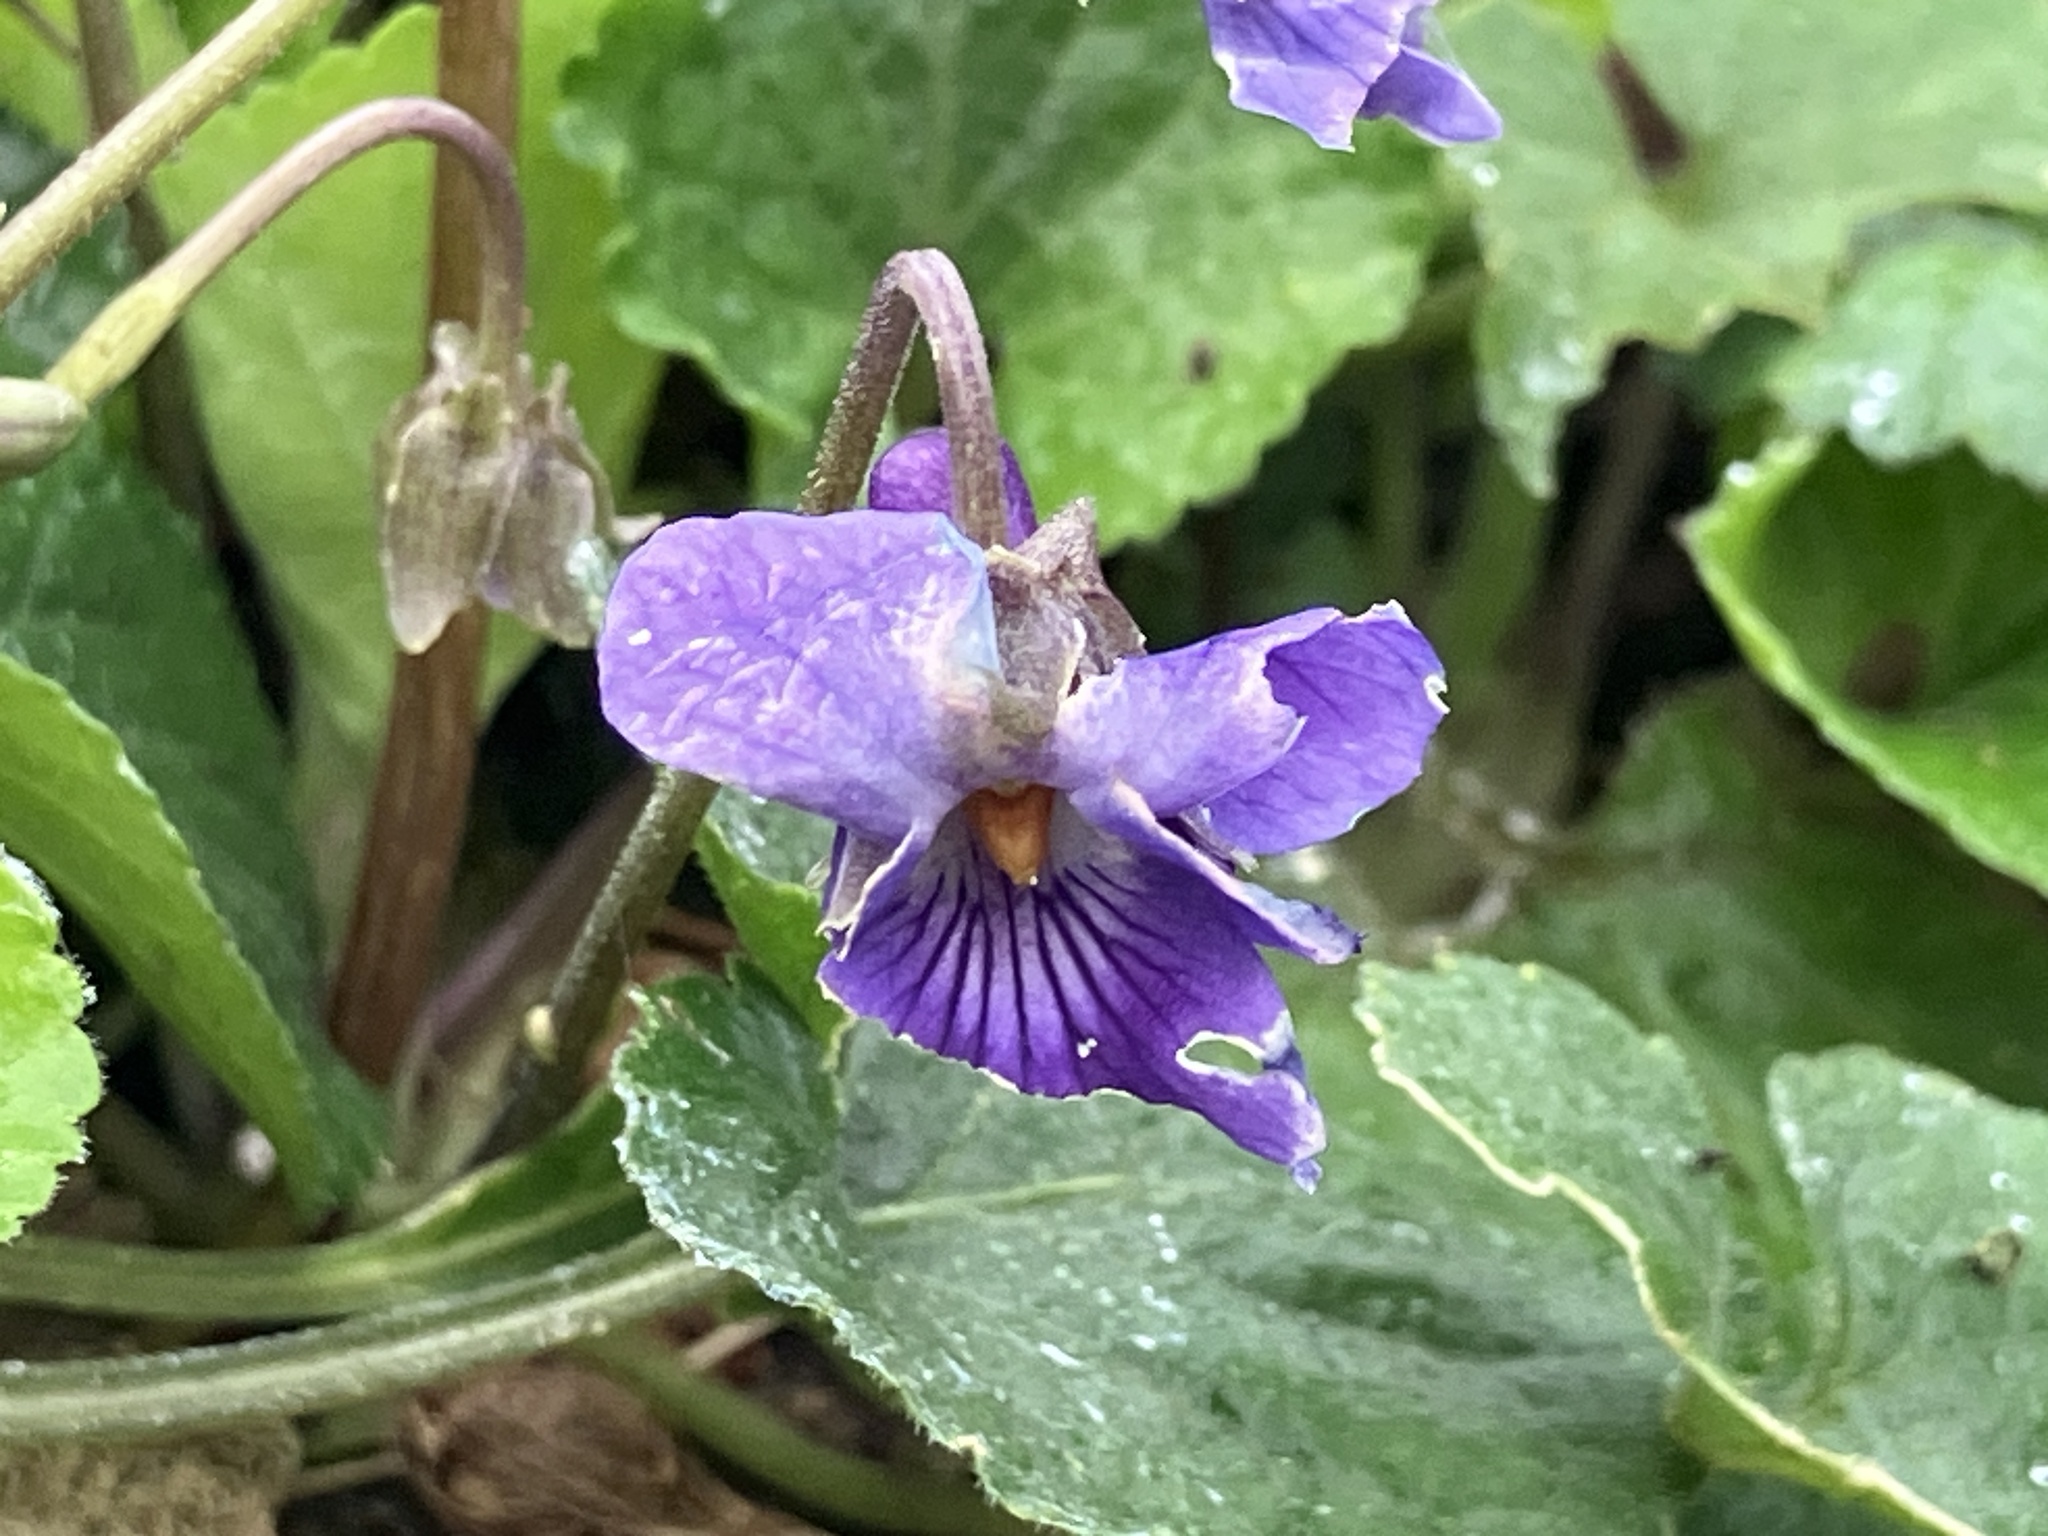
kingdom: Plantae
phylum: Tracheophyta
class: Magnoliopsida
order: Malpighiales
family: Violaceae
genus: Viola
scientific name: Viola odorata
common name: Sweet violet
